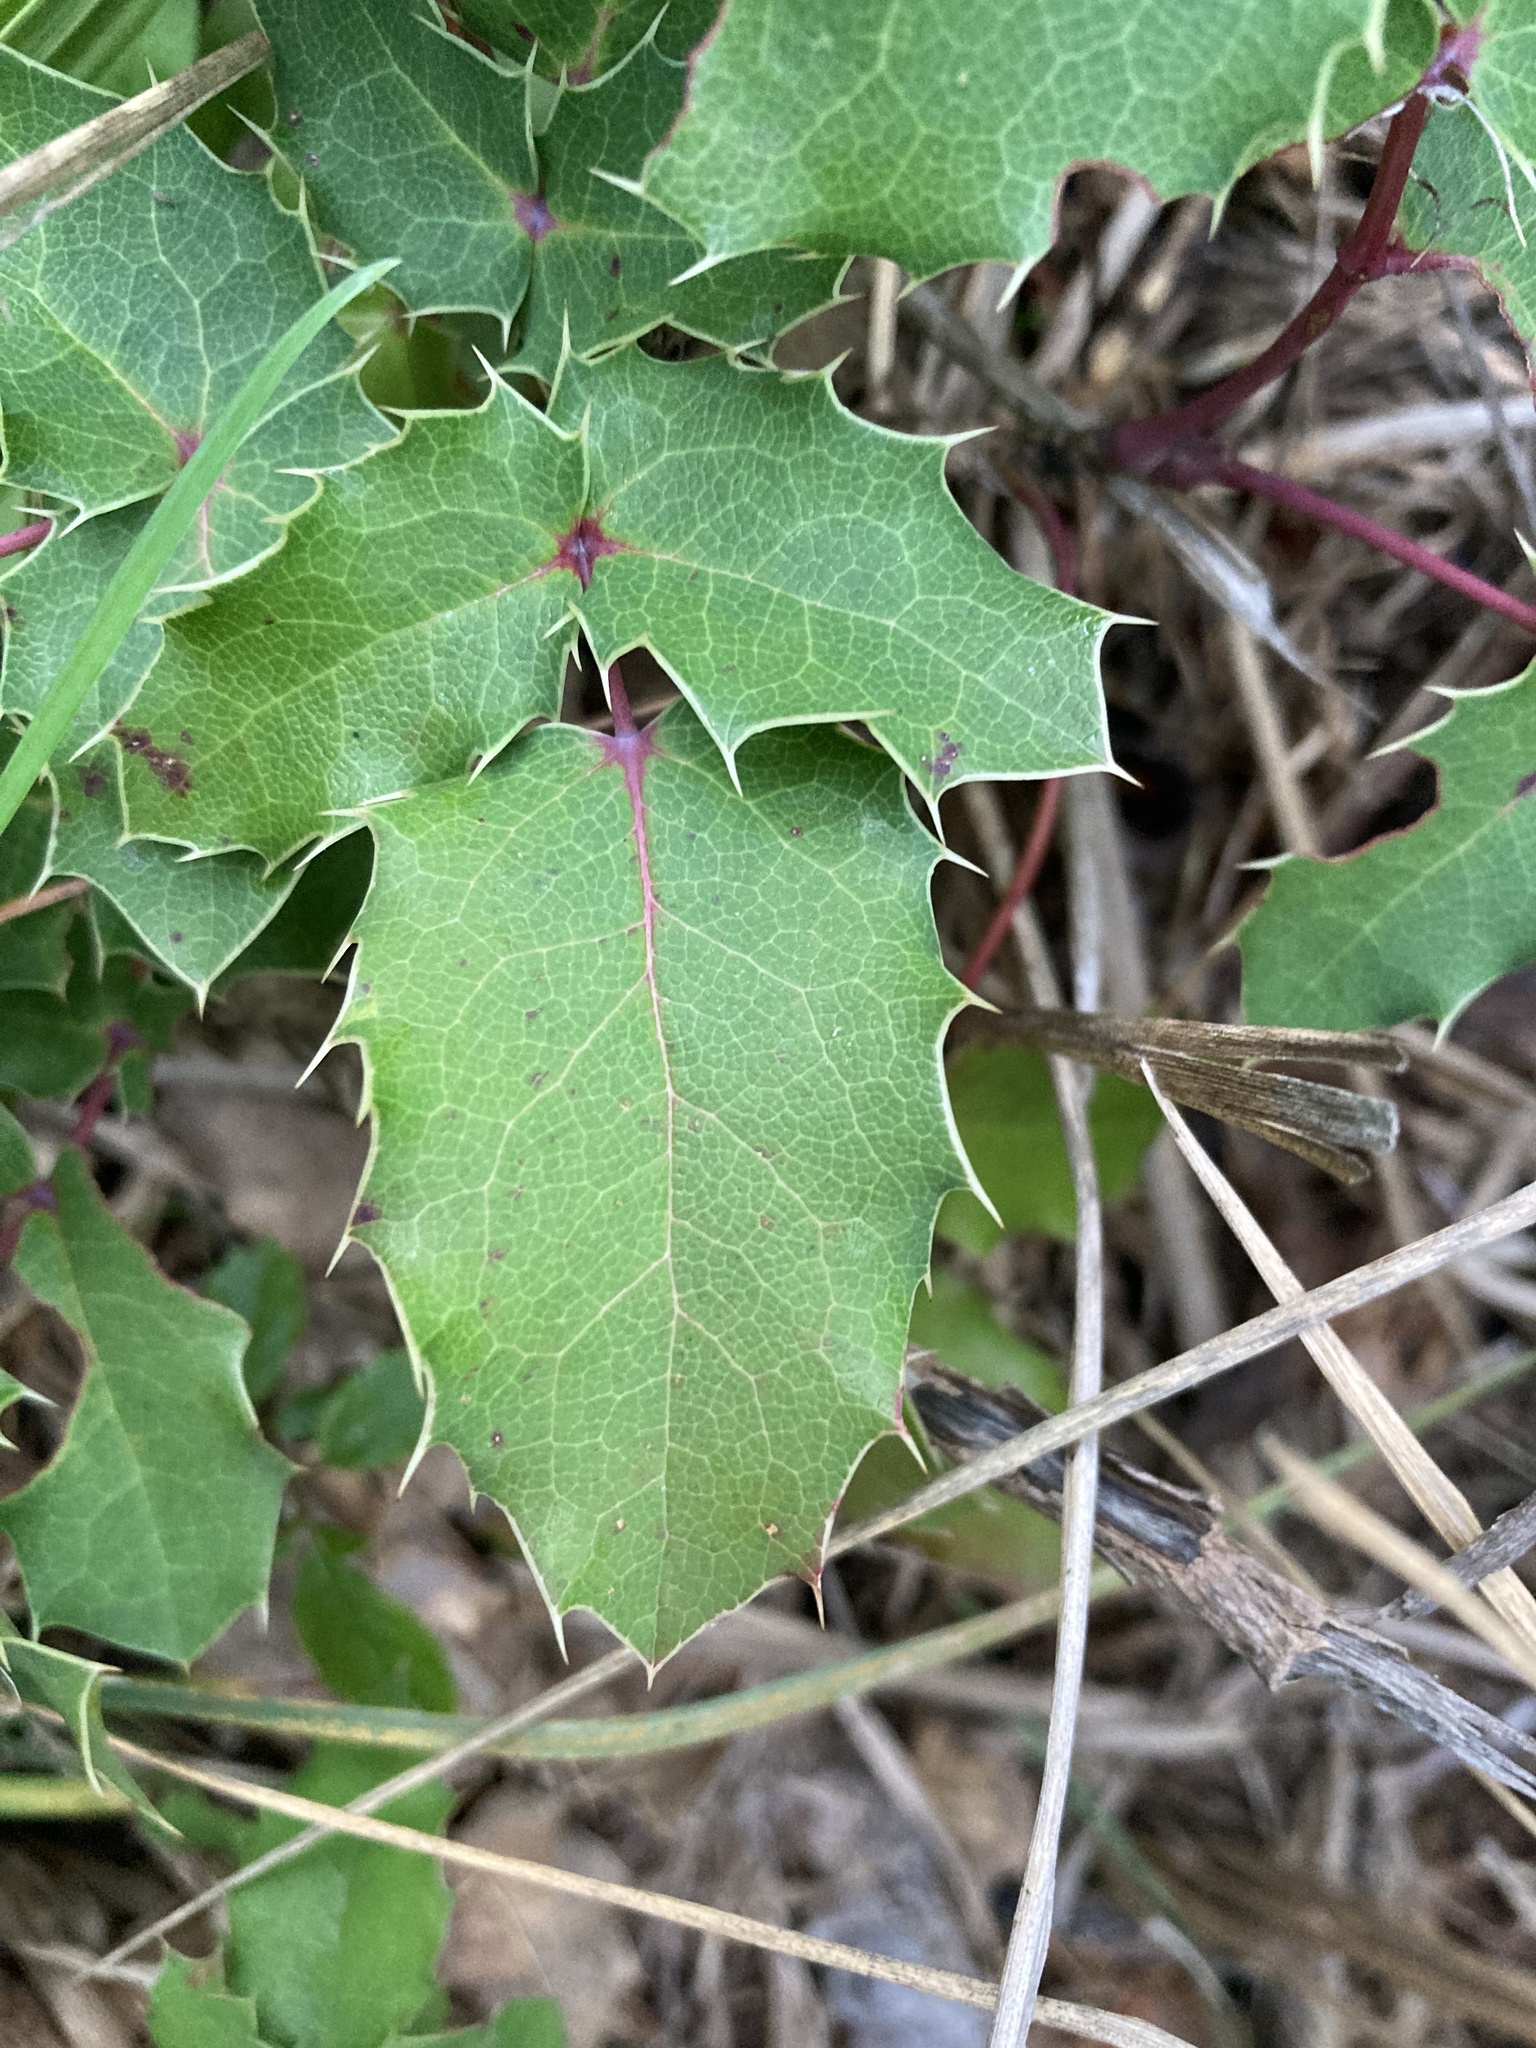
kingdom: Plantae
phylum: Tracheophyta
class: Magnoliopsida
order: Ranunculales
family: Berberidaceae
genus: Mahonia
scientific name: Mahonia aquifolium
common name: Oregon-grape
